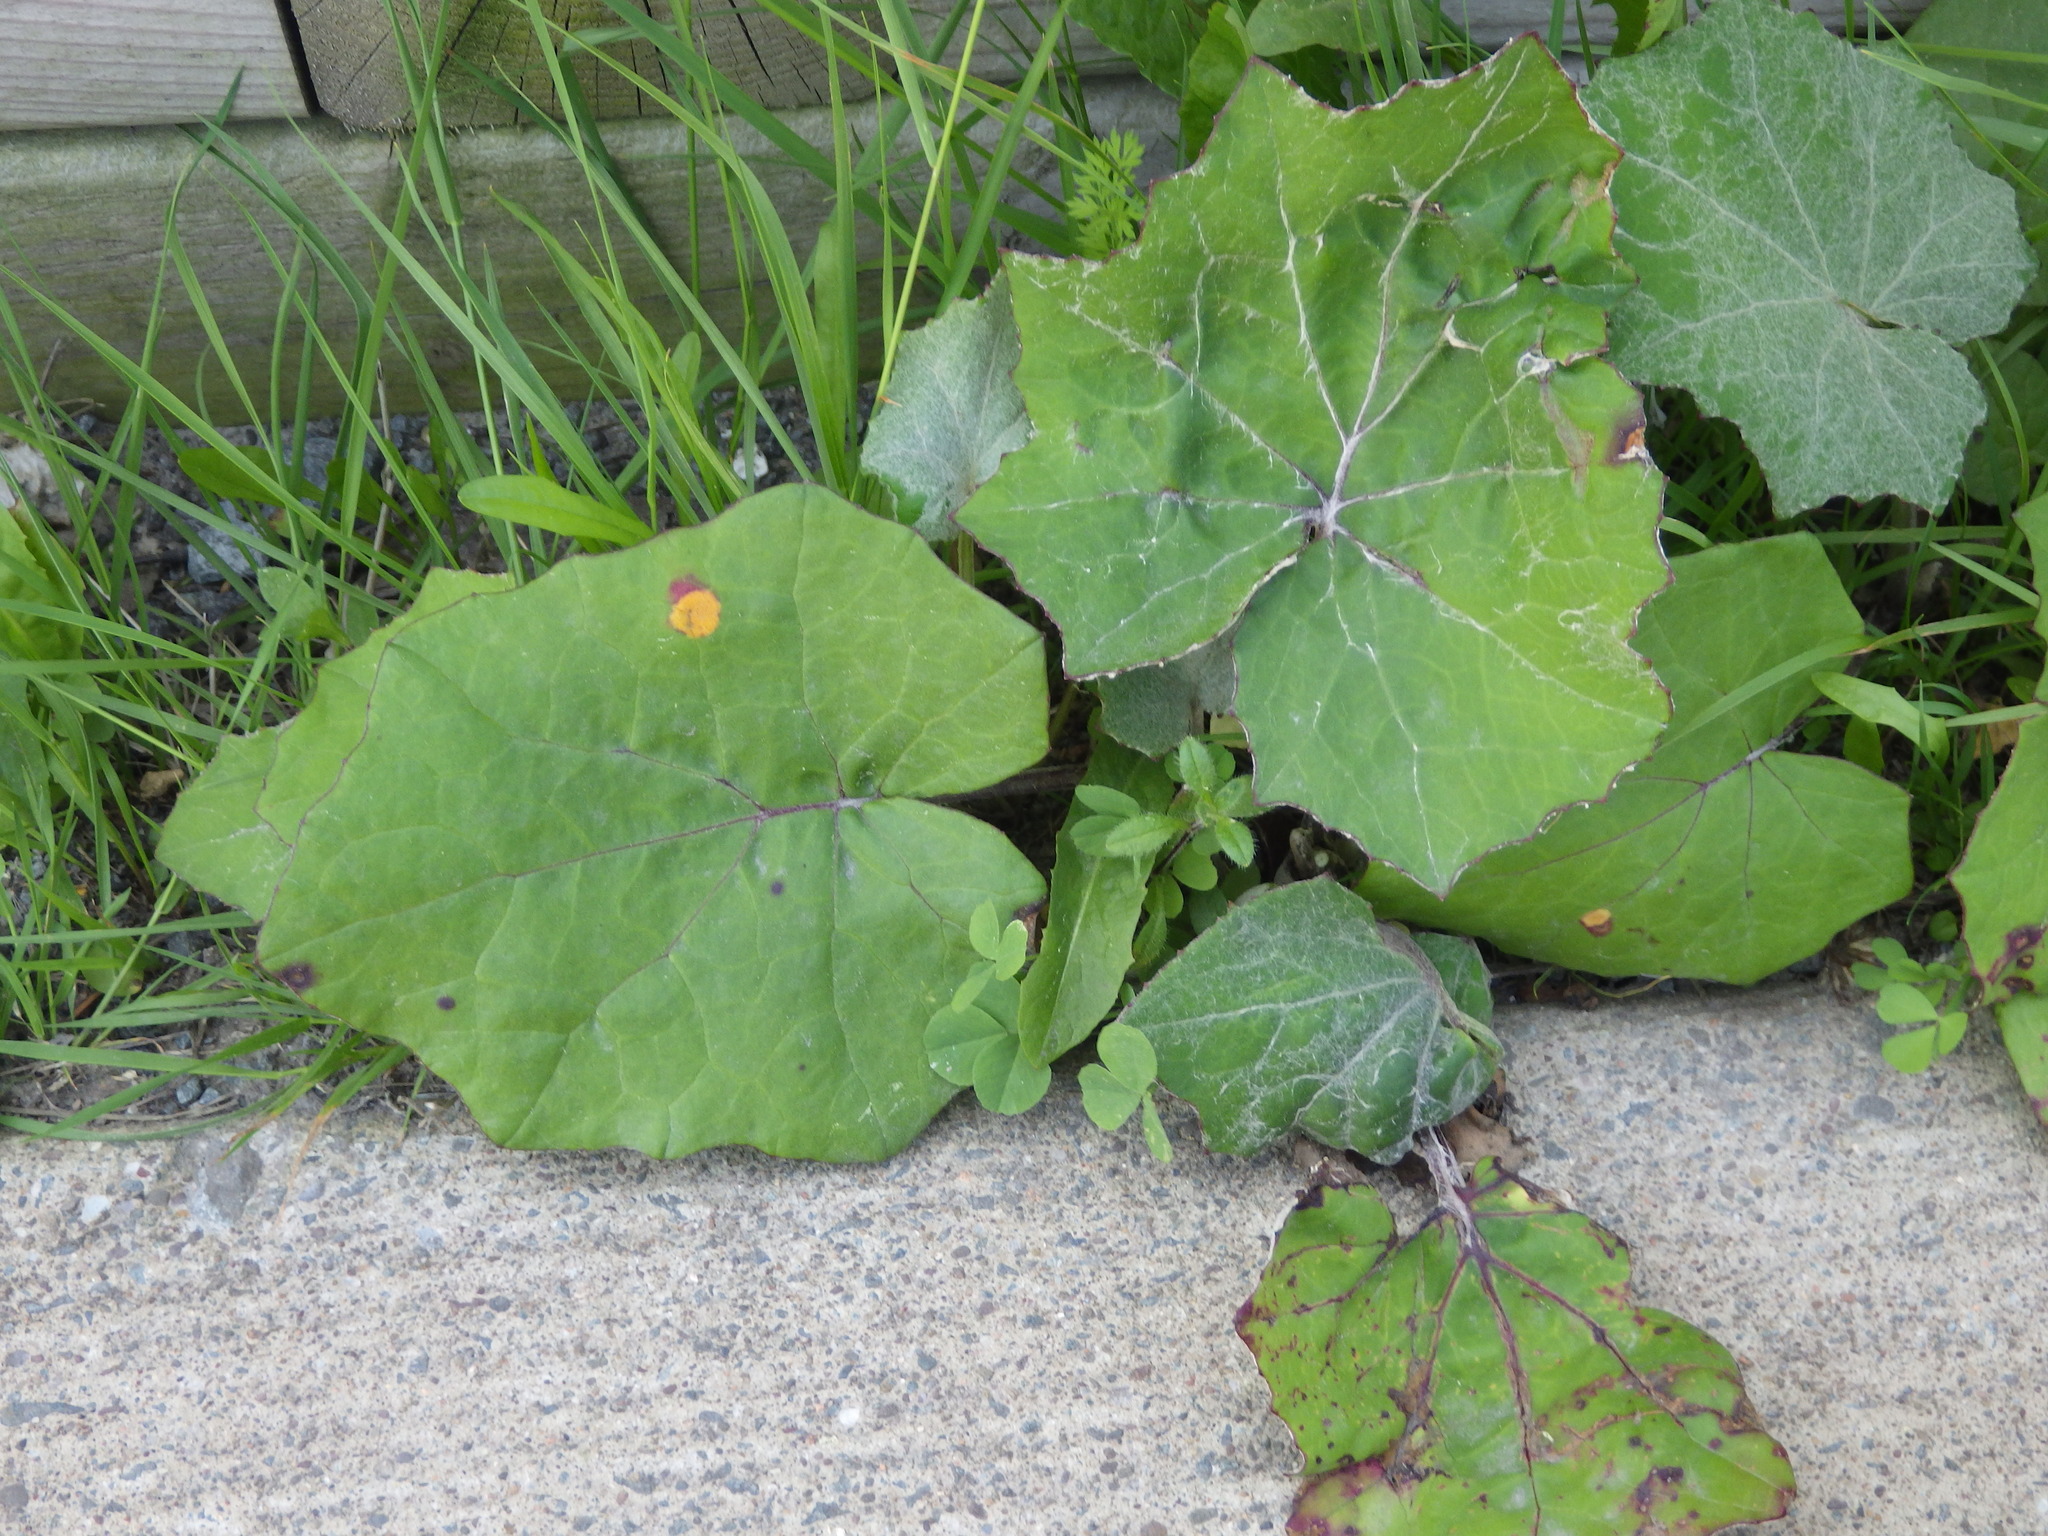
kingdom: Plantae
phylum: Tracheophyta
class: Magnoliopsida
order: Asterales
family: Asteraceae
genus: Tussilago
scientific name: Tussilago farfara
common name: Coltsfoot
